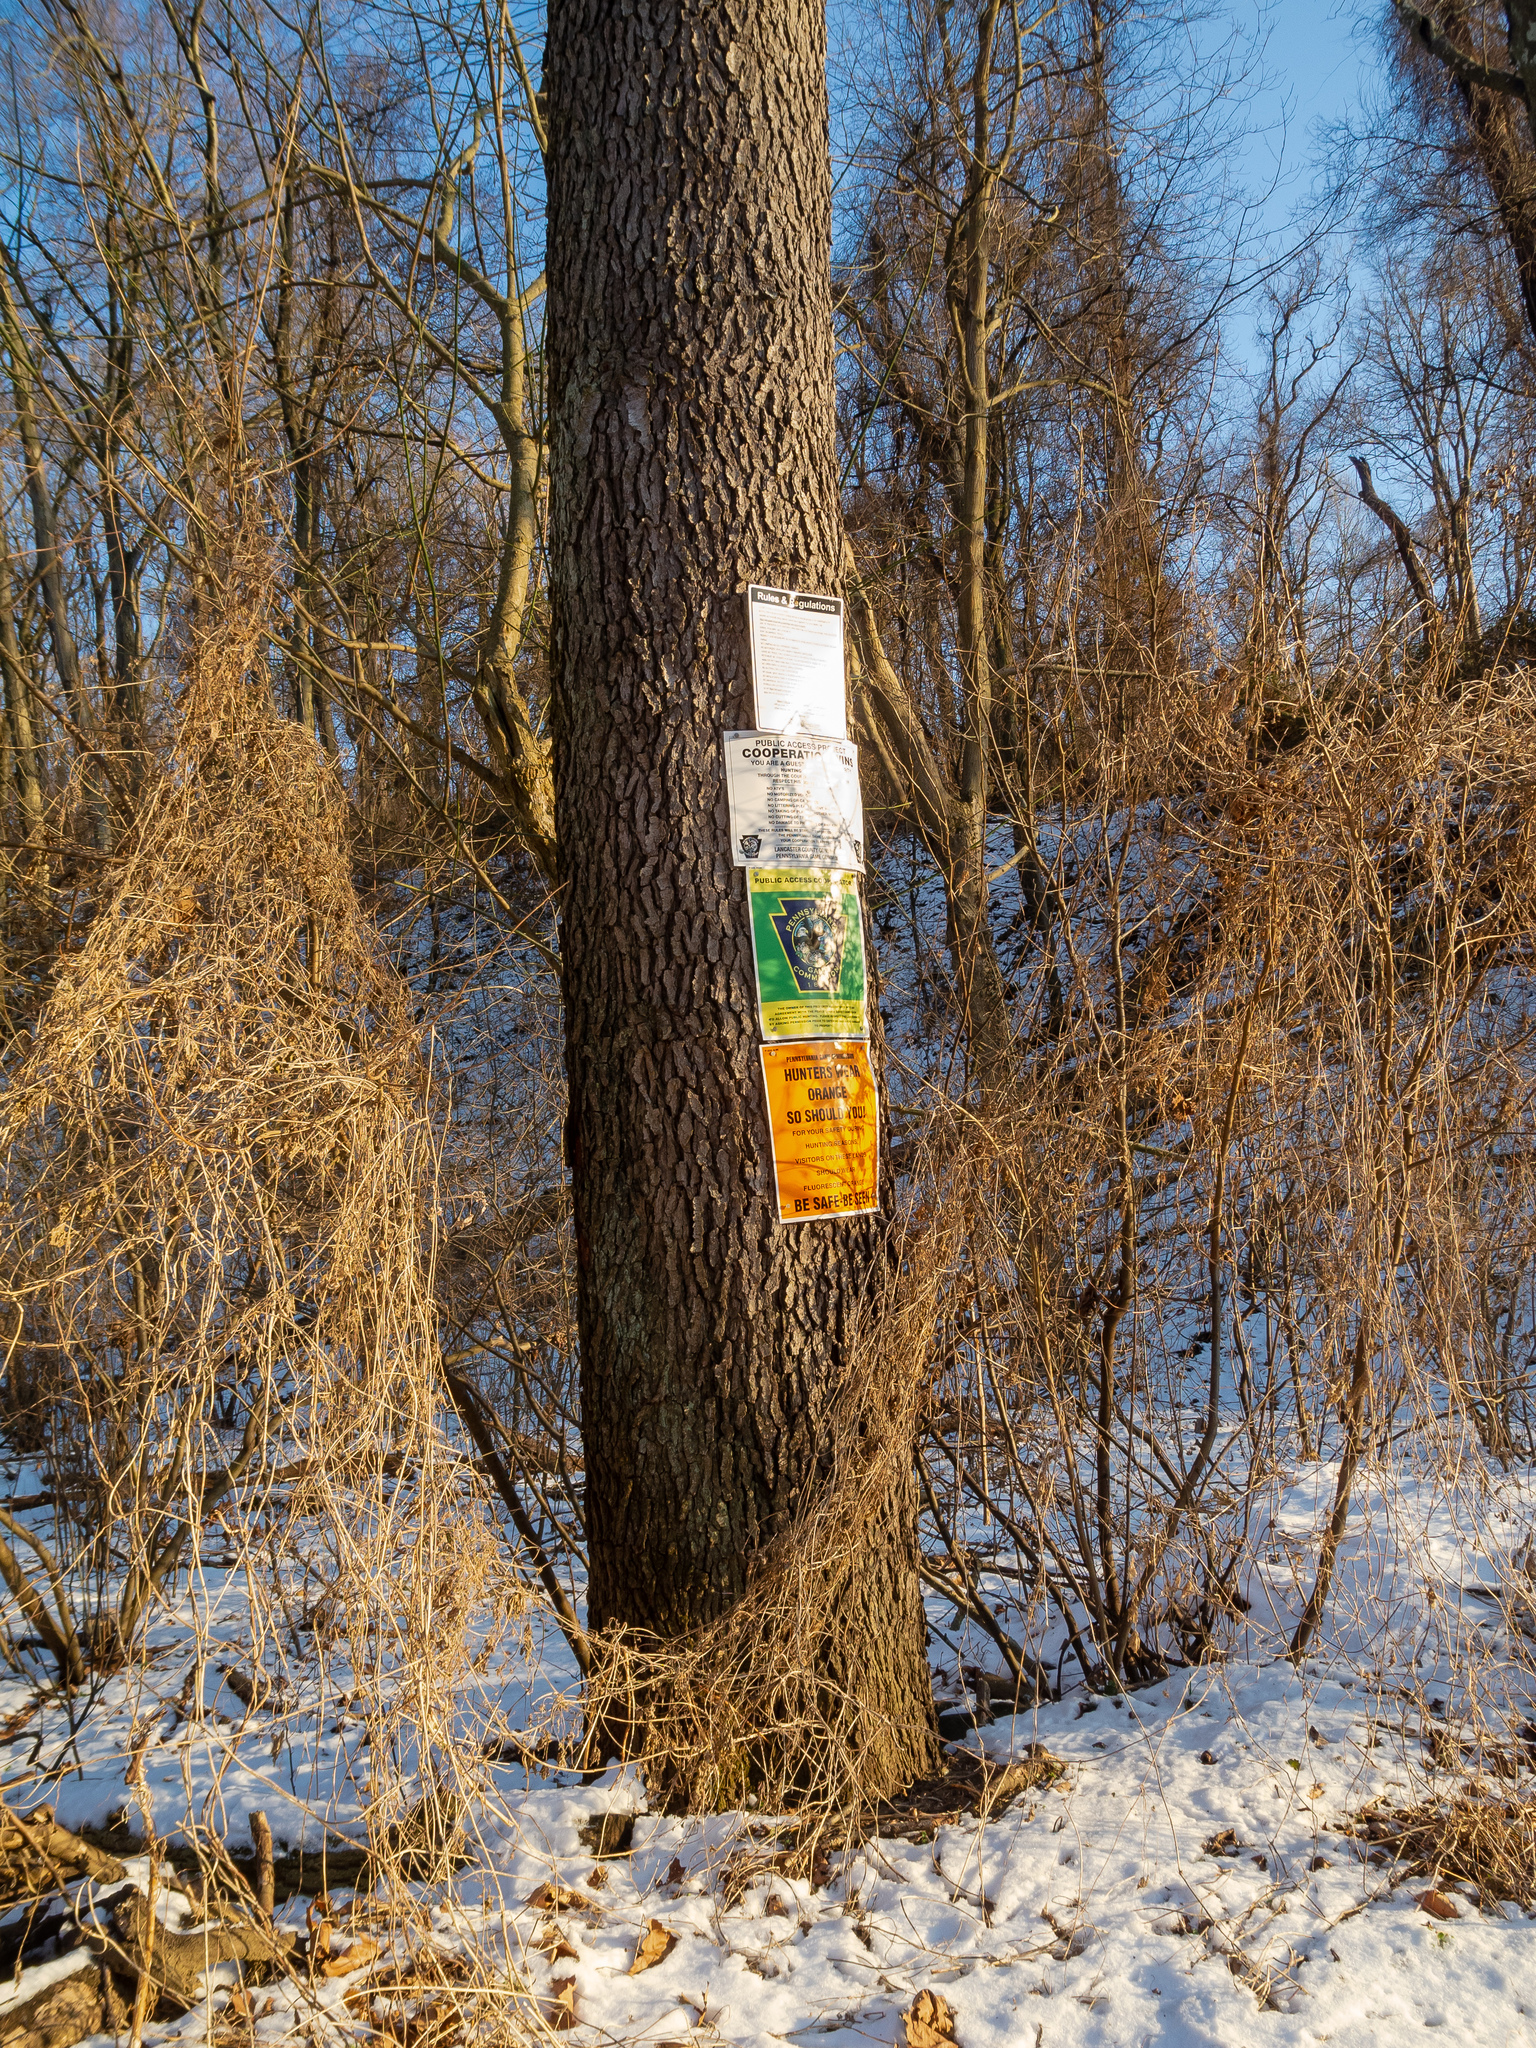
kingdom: Plantae
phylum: Tracheophyta
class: Magnoliopsida
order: Rosales
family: Rosaceae
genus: Prunus
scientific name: Prunus serotina
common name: Black cherry
